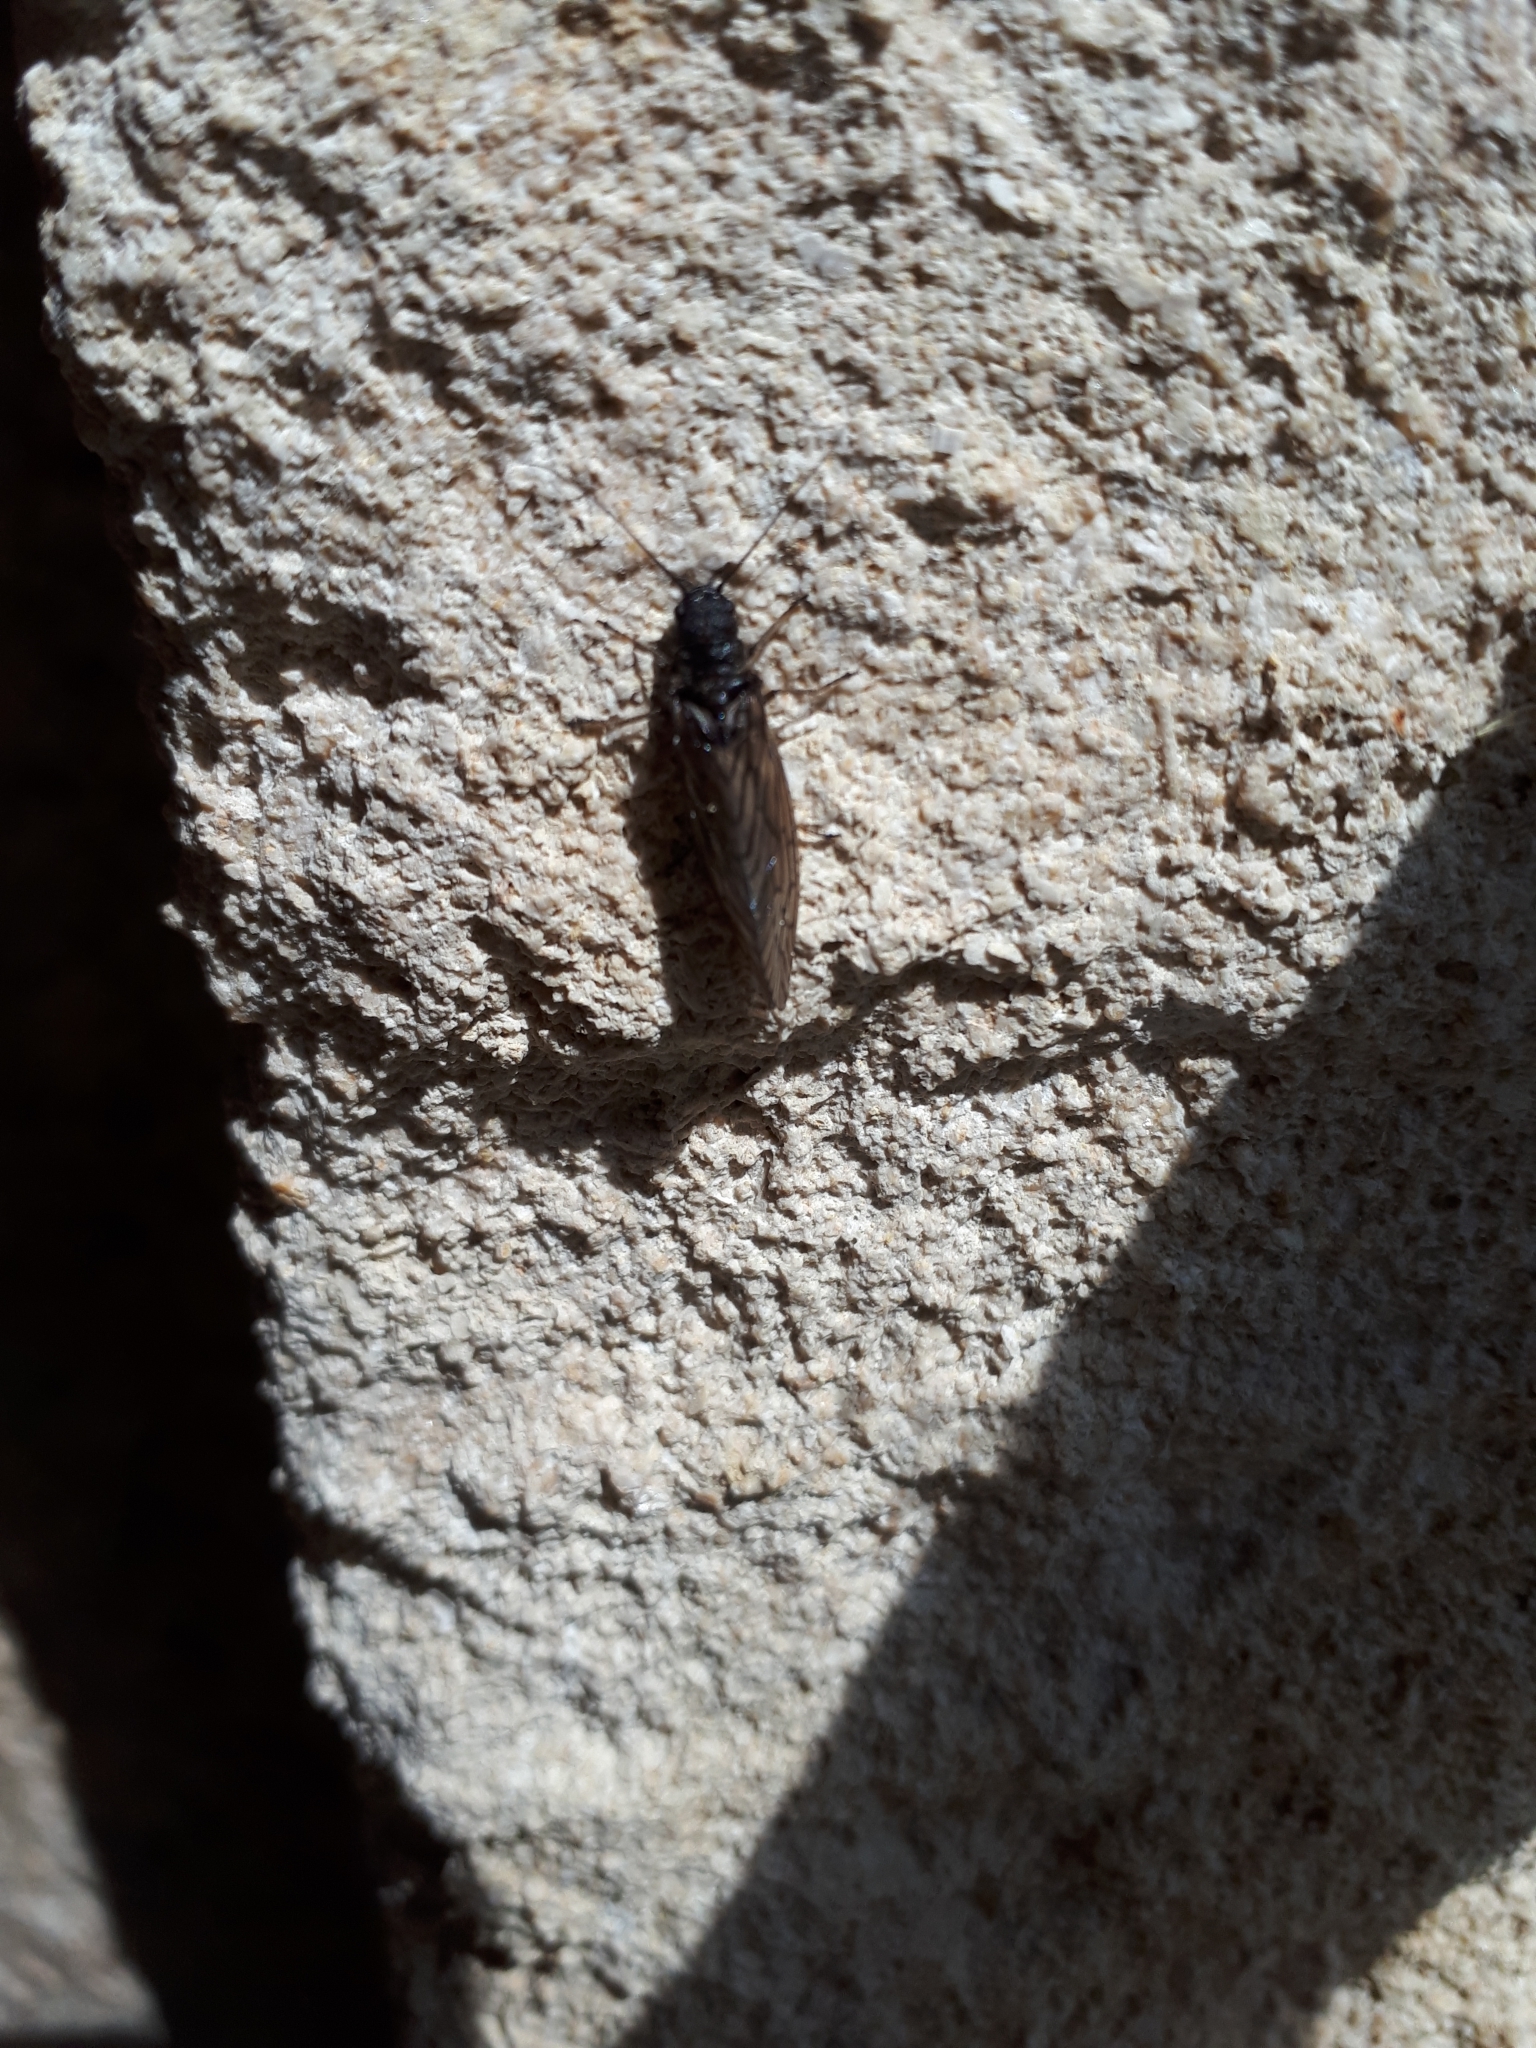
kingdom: Animalia
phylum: Arthropoda
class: Insecta
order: Megaloptera
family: Sialidae
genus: Sialis
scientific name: Sialis
